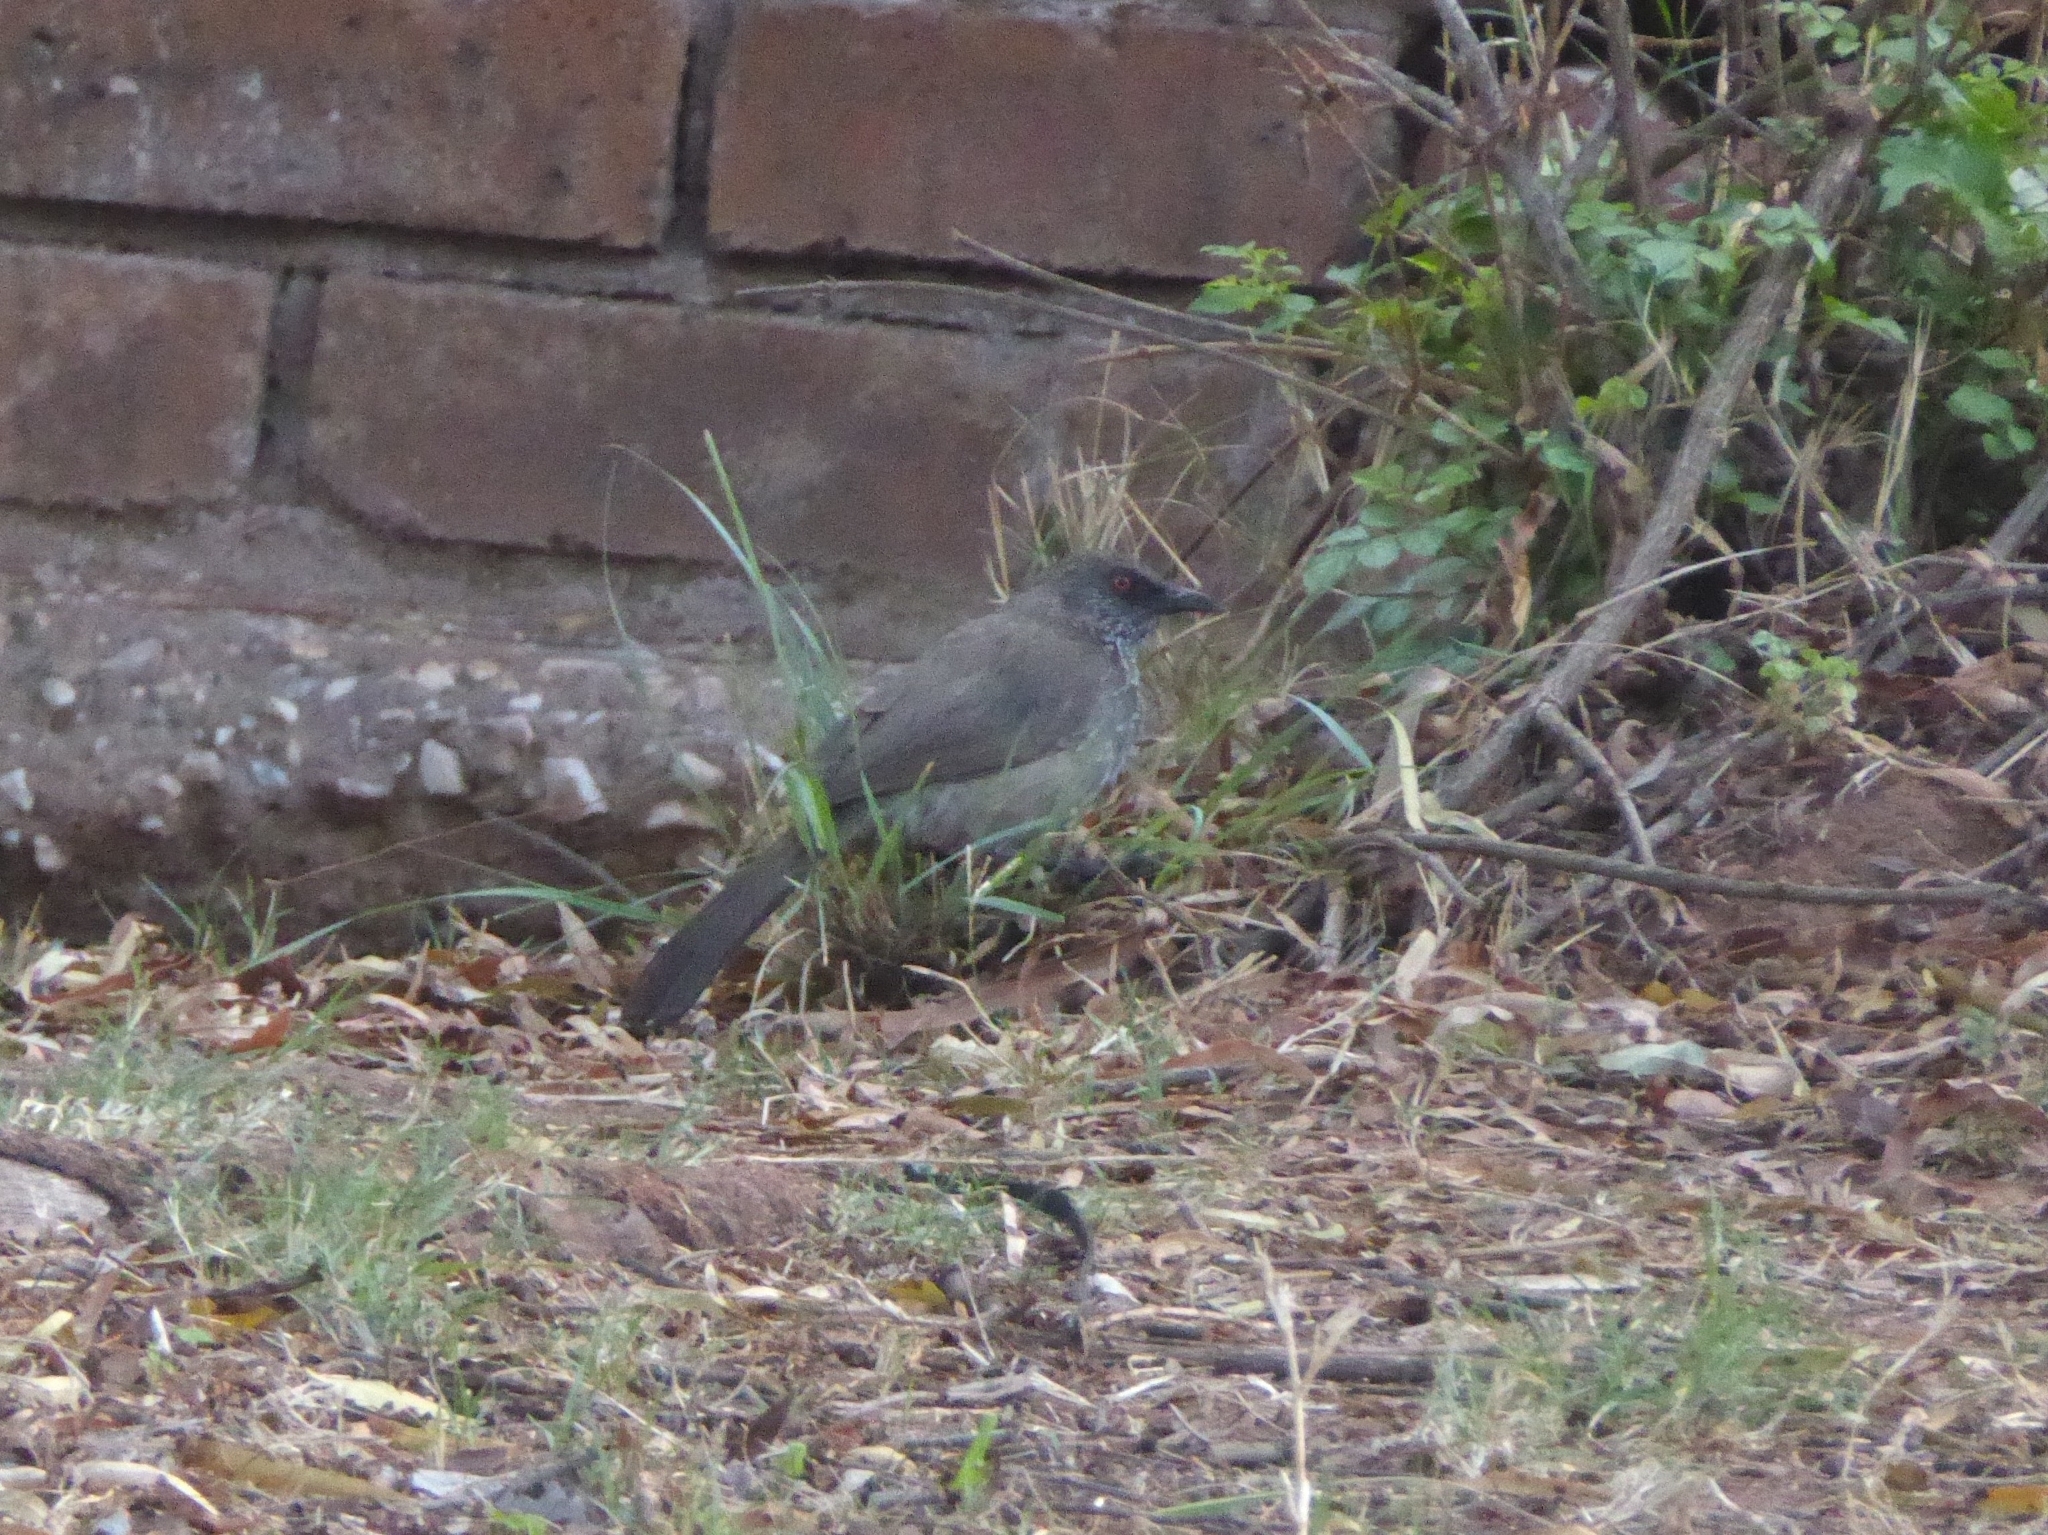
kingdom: Animalia
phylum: Chordata
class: Aves
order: Passeriformes
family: Leiothrichidae
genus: Turdoides
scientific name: Turdoides jardineii
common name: Arrow-marked babbler
